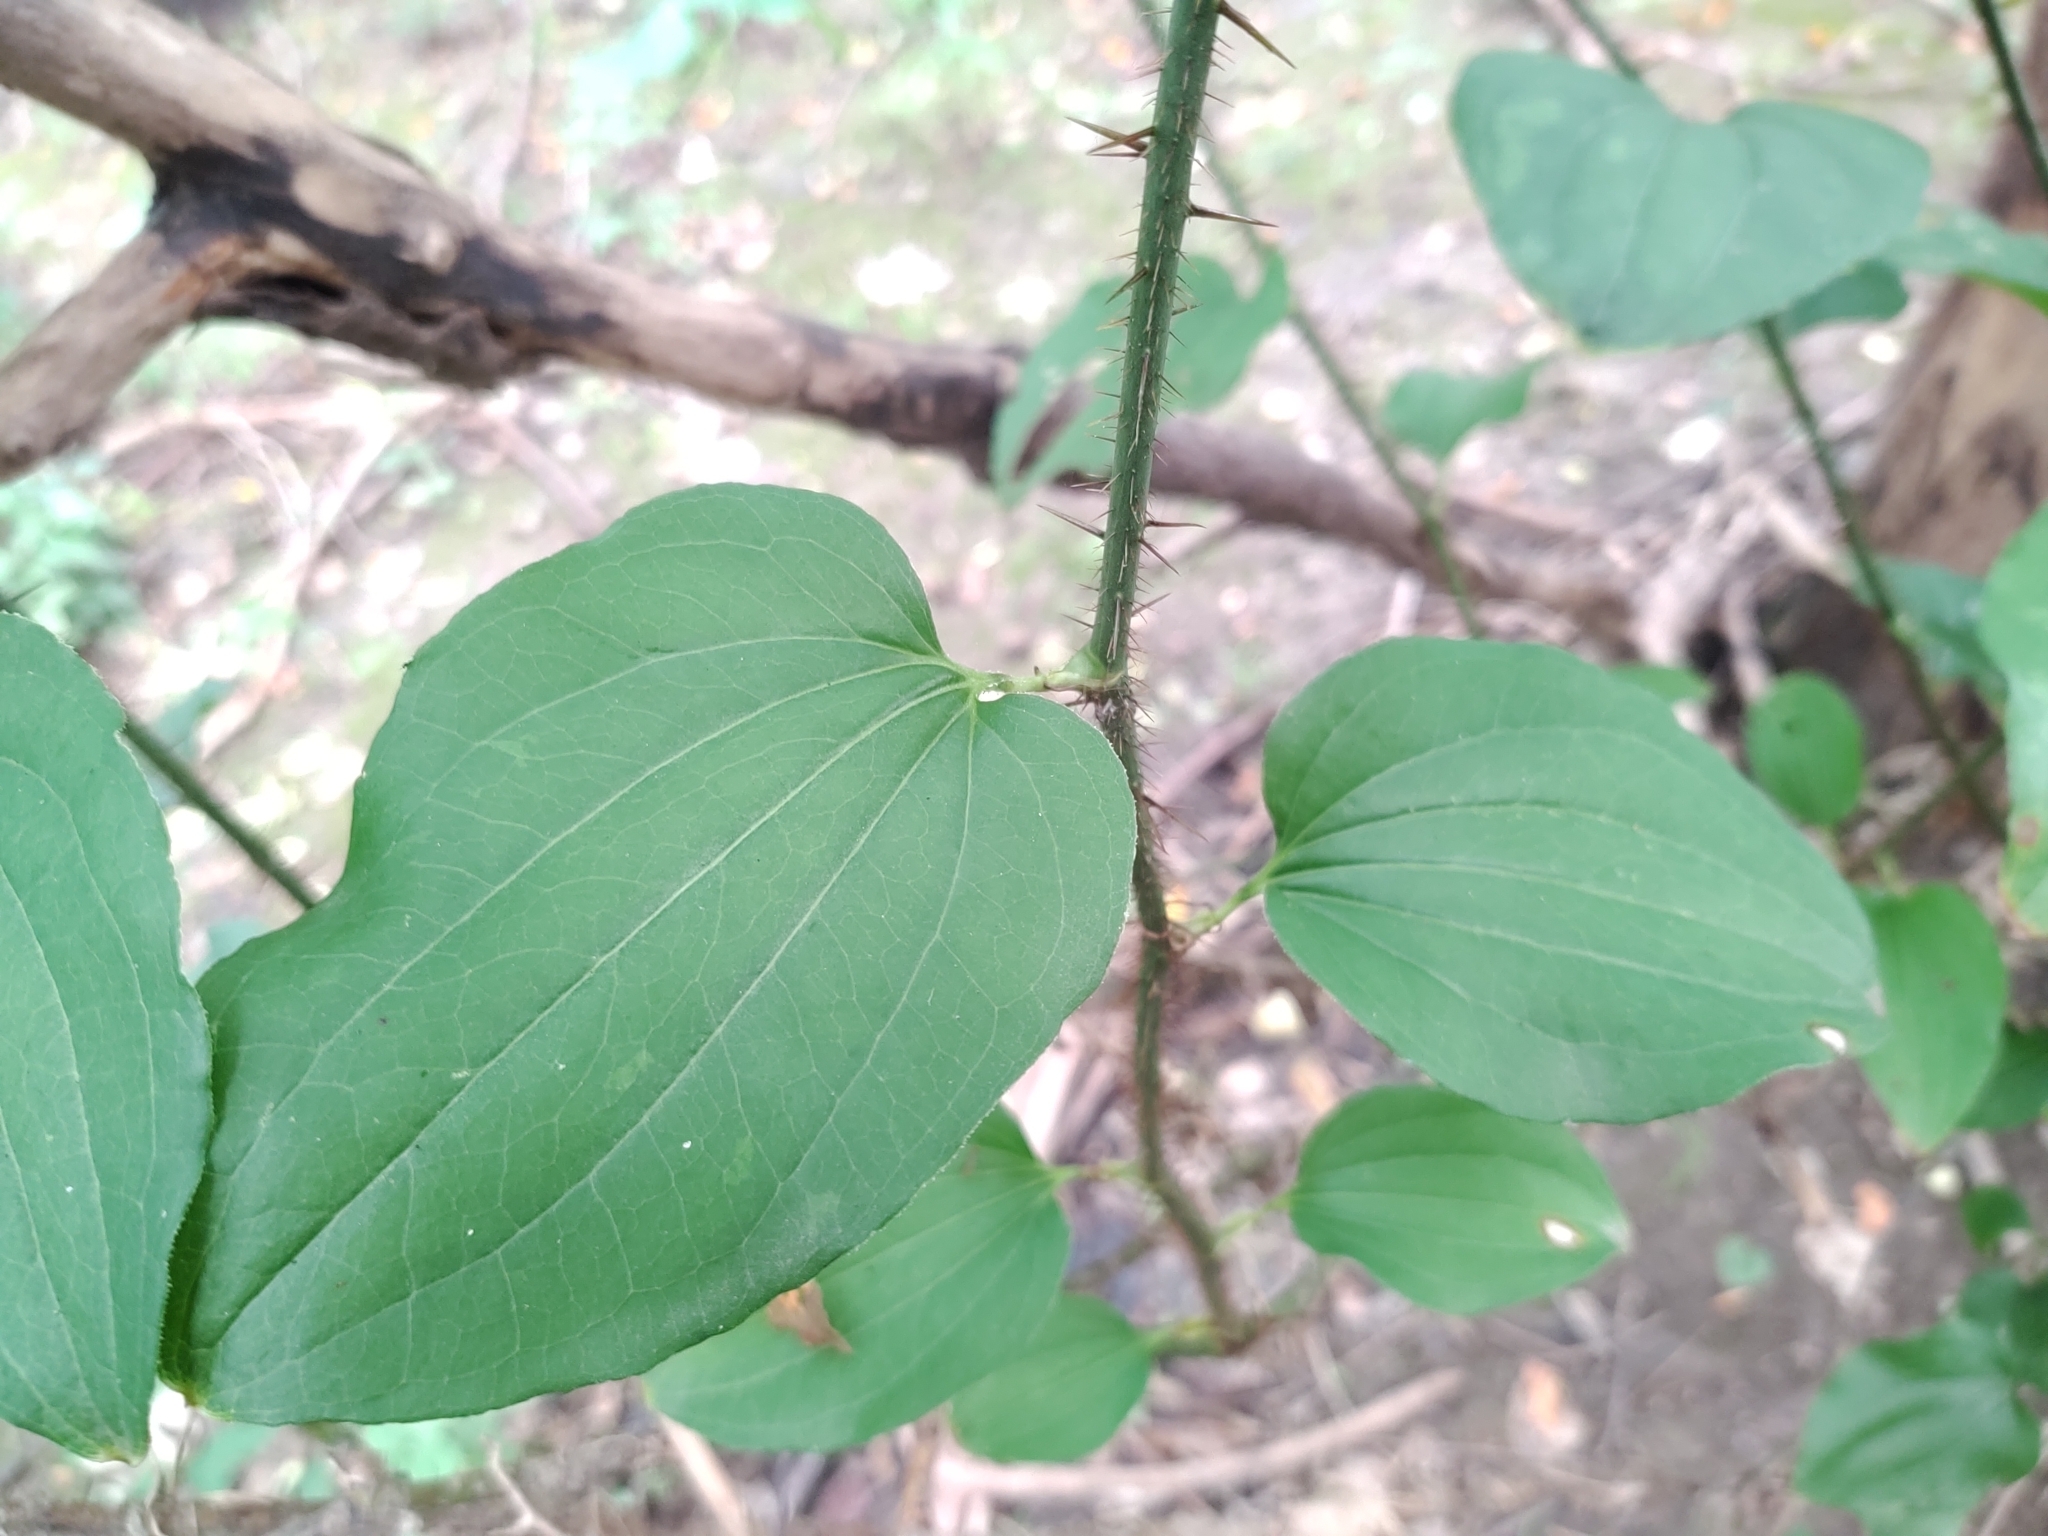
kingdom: Plantae
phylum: Tracheophyta
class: Liliopsida
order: Liliales
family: Smilacaceae
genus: Smilax
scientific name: Smilax tamnoides
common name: Hellfetter
